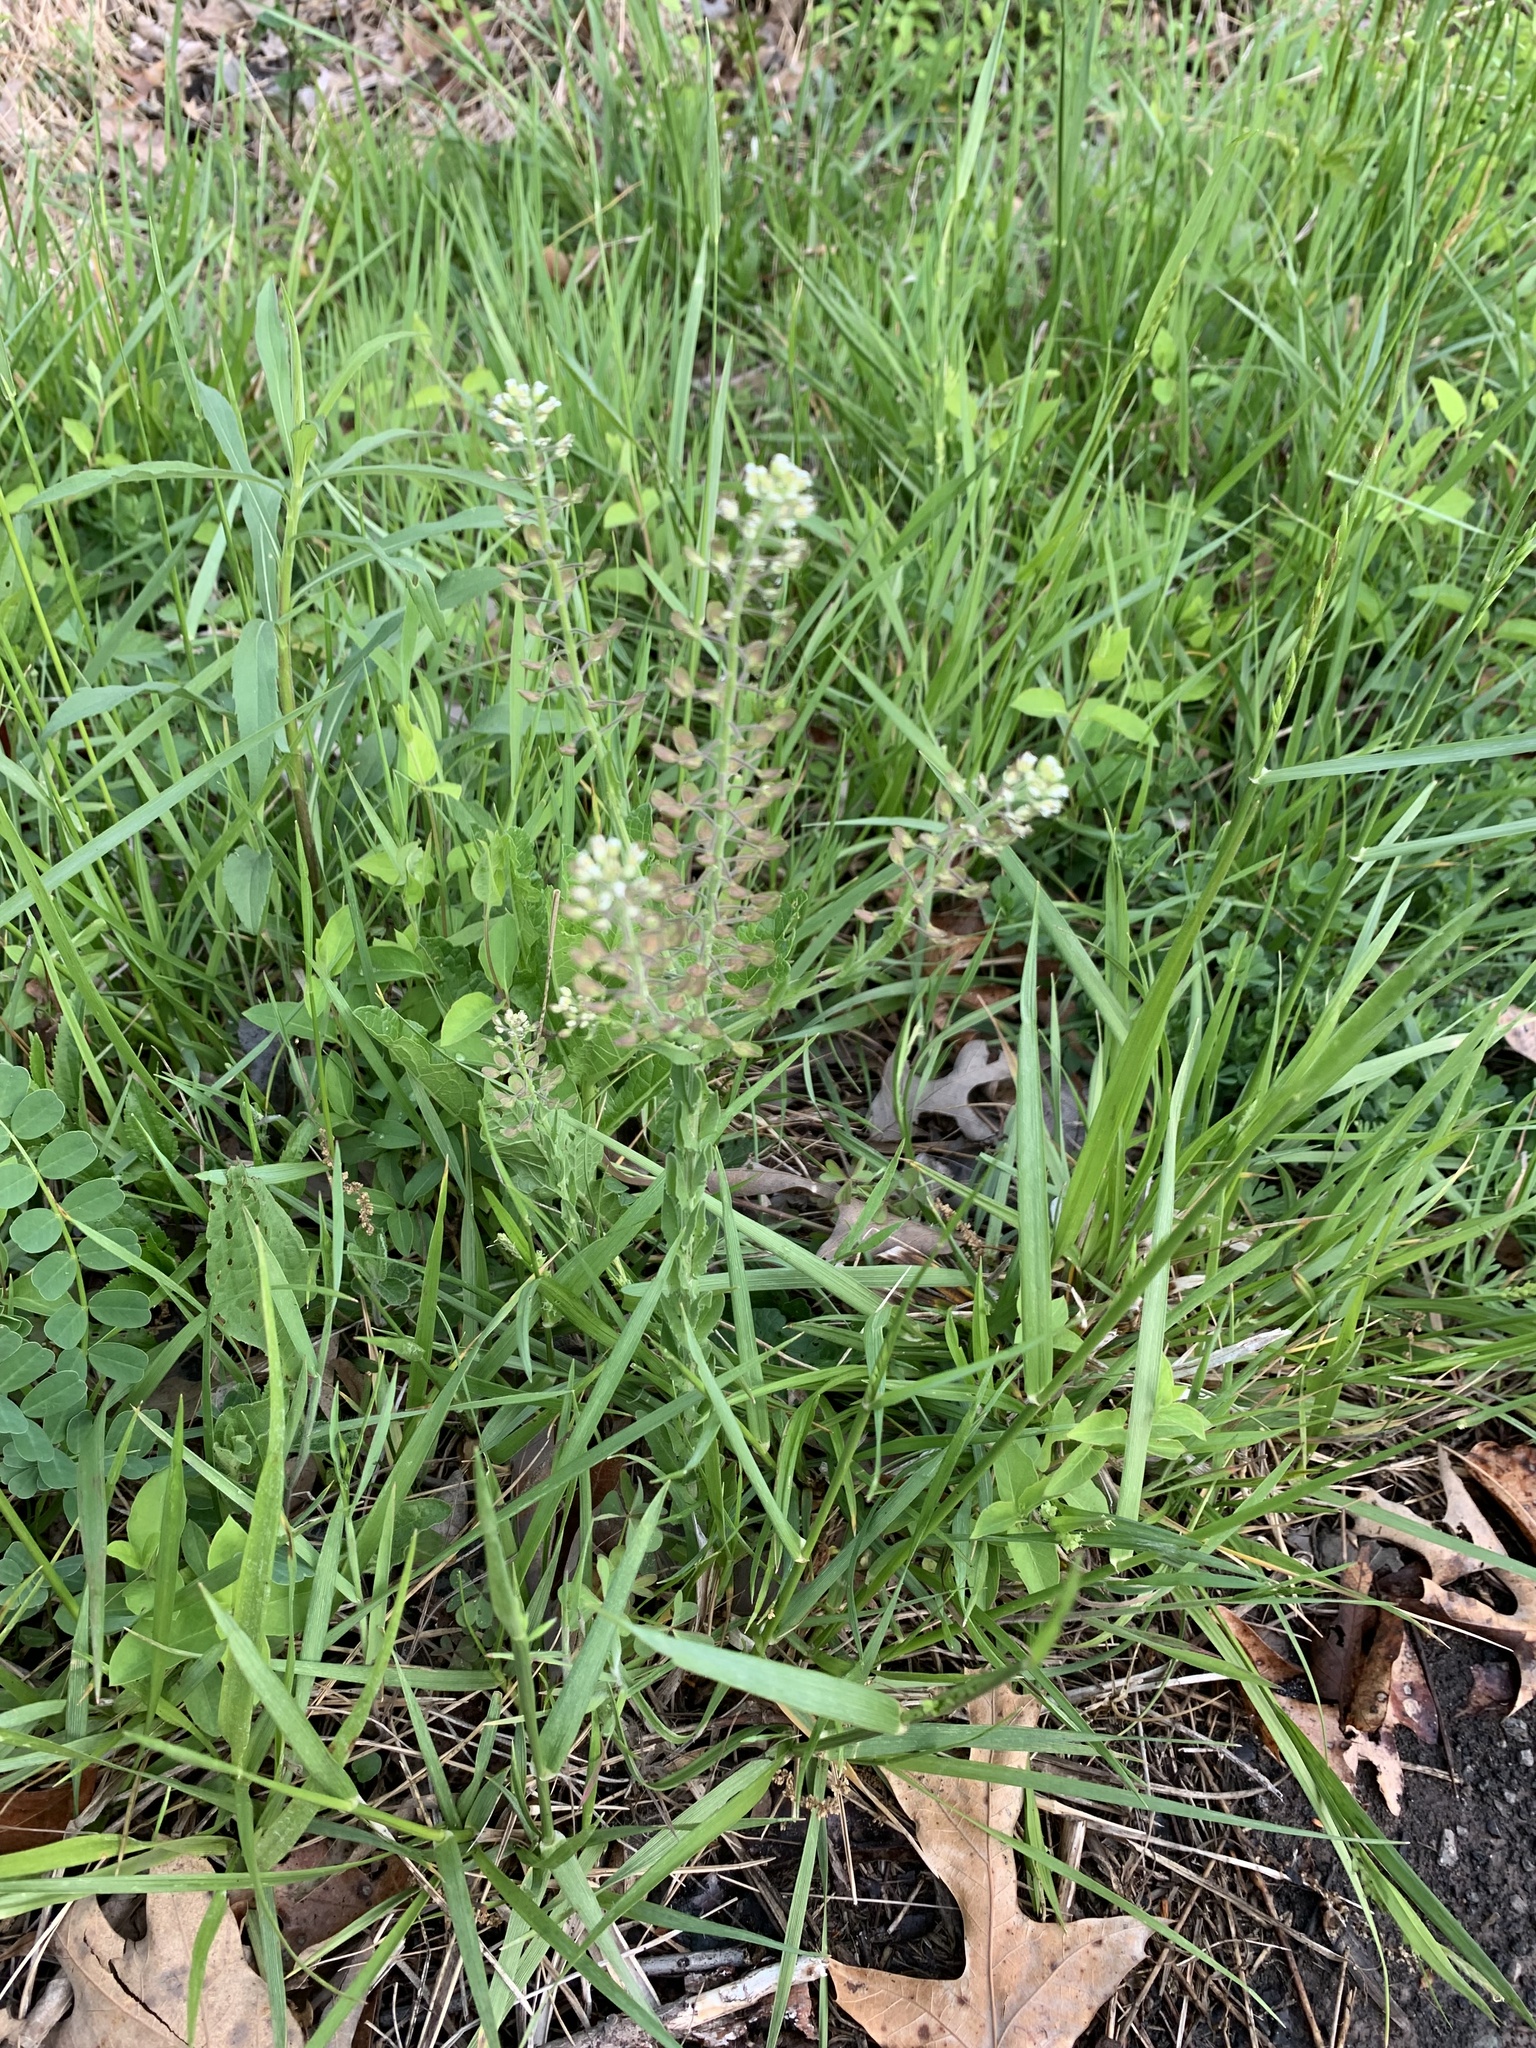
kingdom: Plantae
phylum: Tracheophyta
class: Magnoliopsida
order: Brassicales
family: Brassicaceae
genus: Lepidium
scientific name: Lepidium campestre
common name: Field pepperwort
